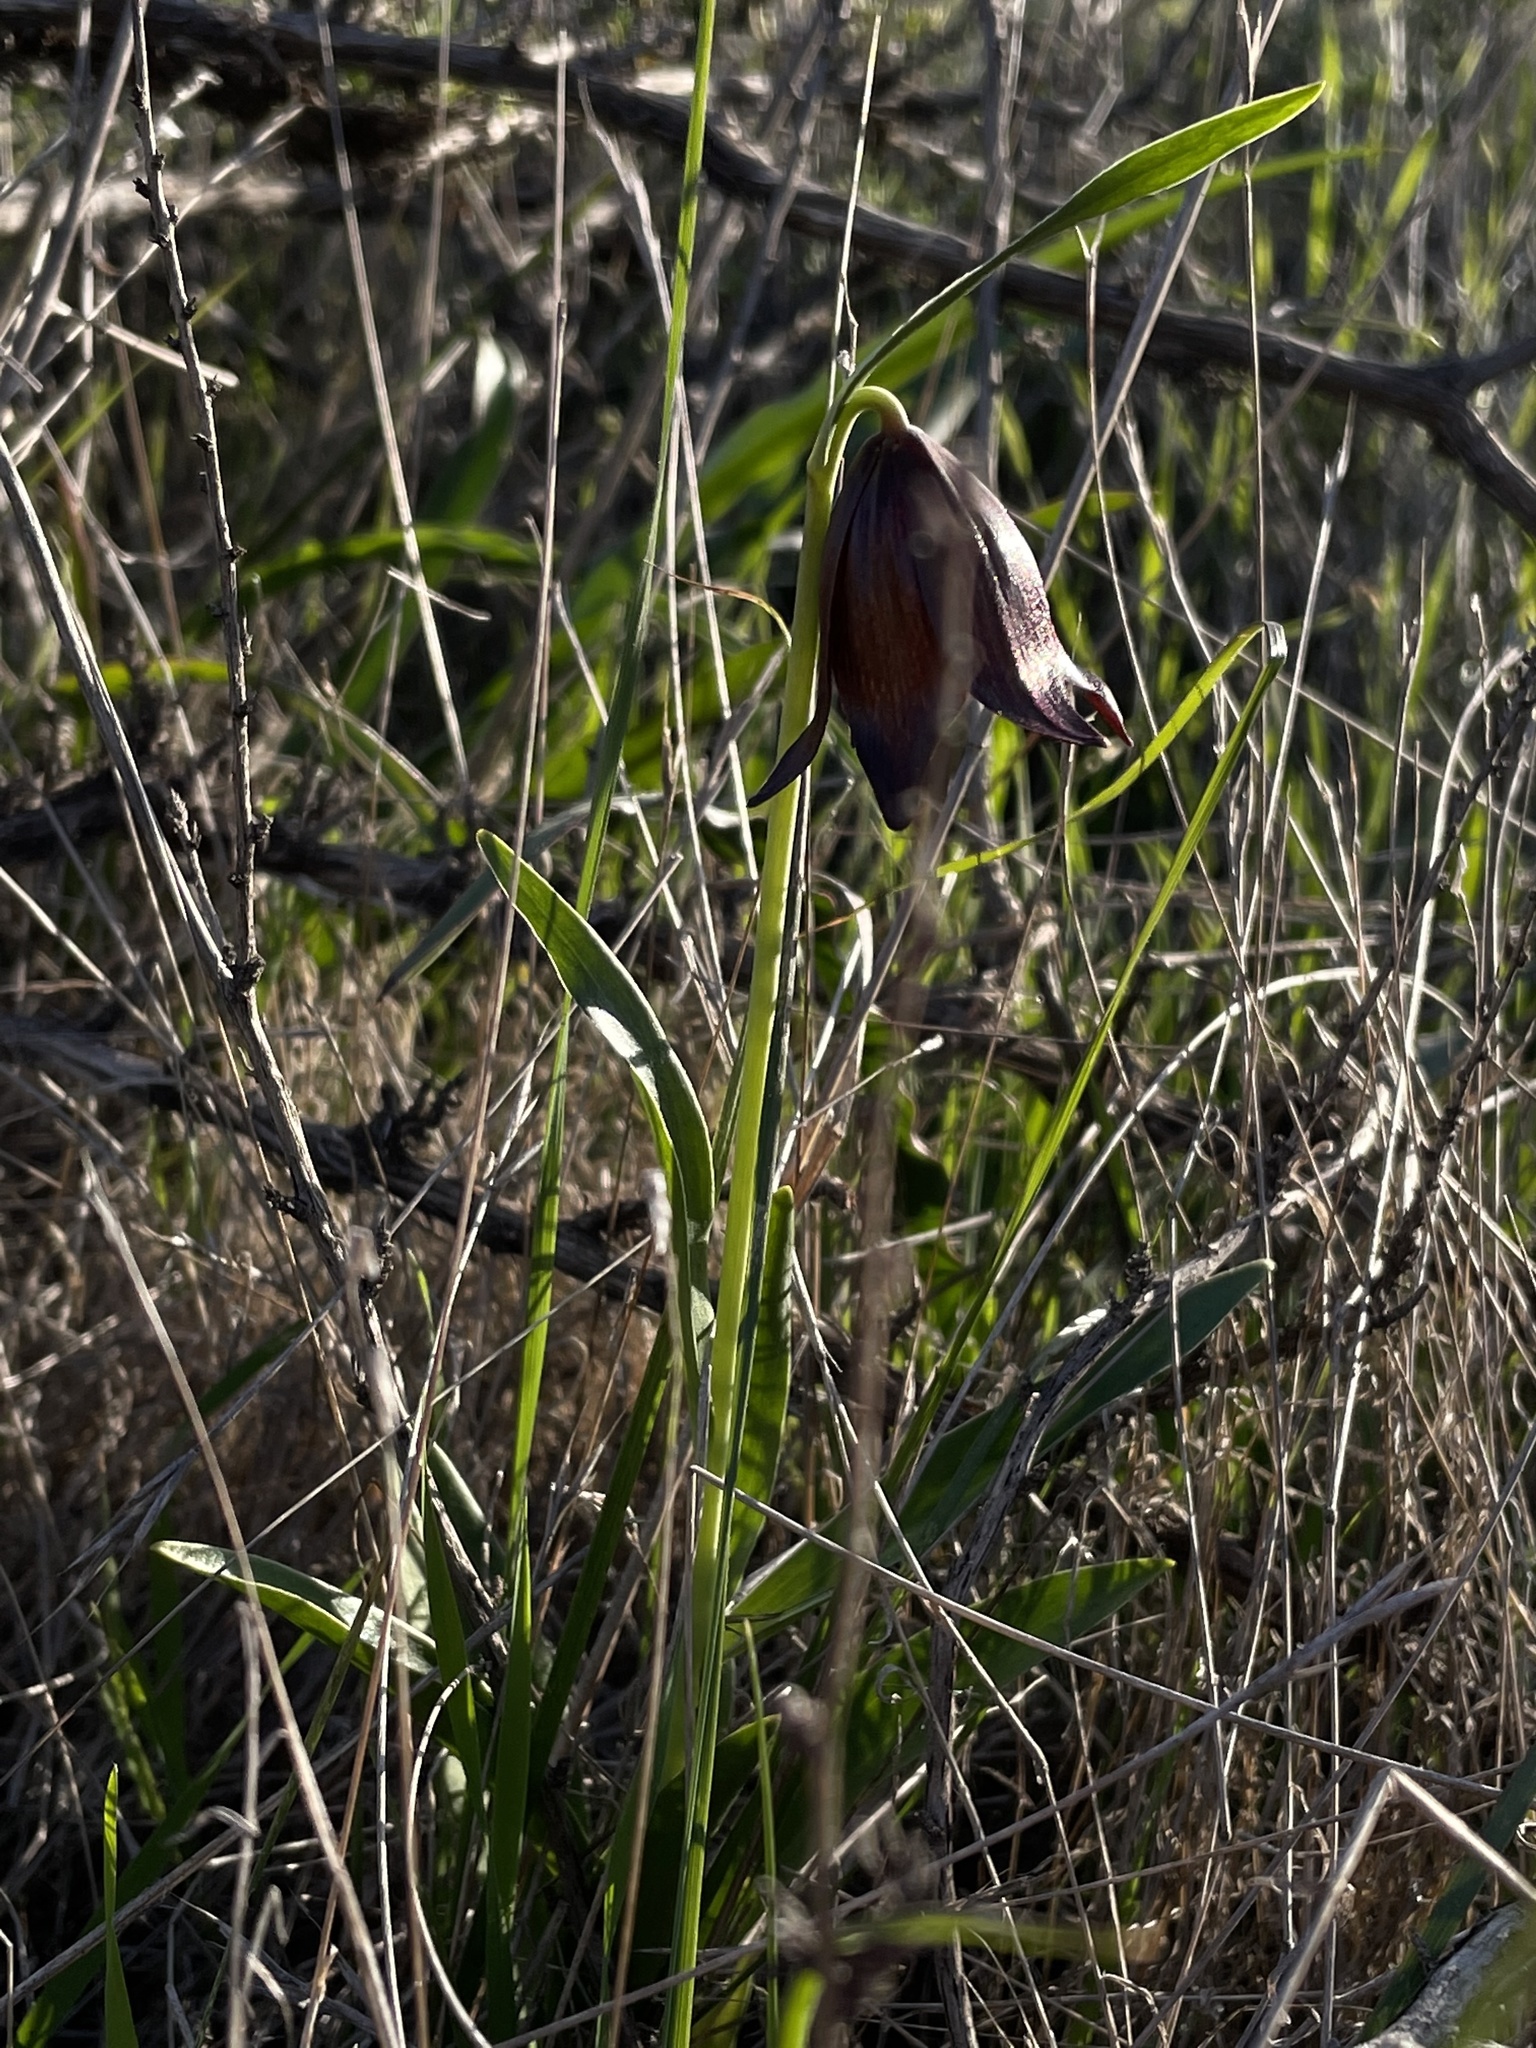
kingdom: Plantae
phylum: Tracheophyta
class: Liliopsida
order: Liliales
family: Liliaceae
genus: Fritillaria
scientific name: Fritillaria biflora
